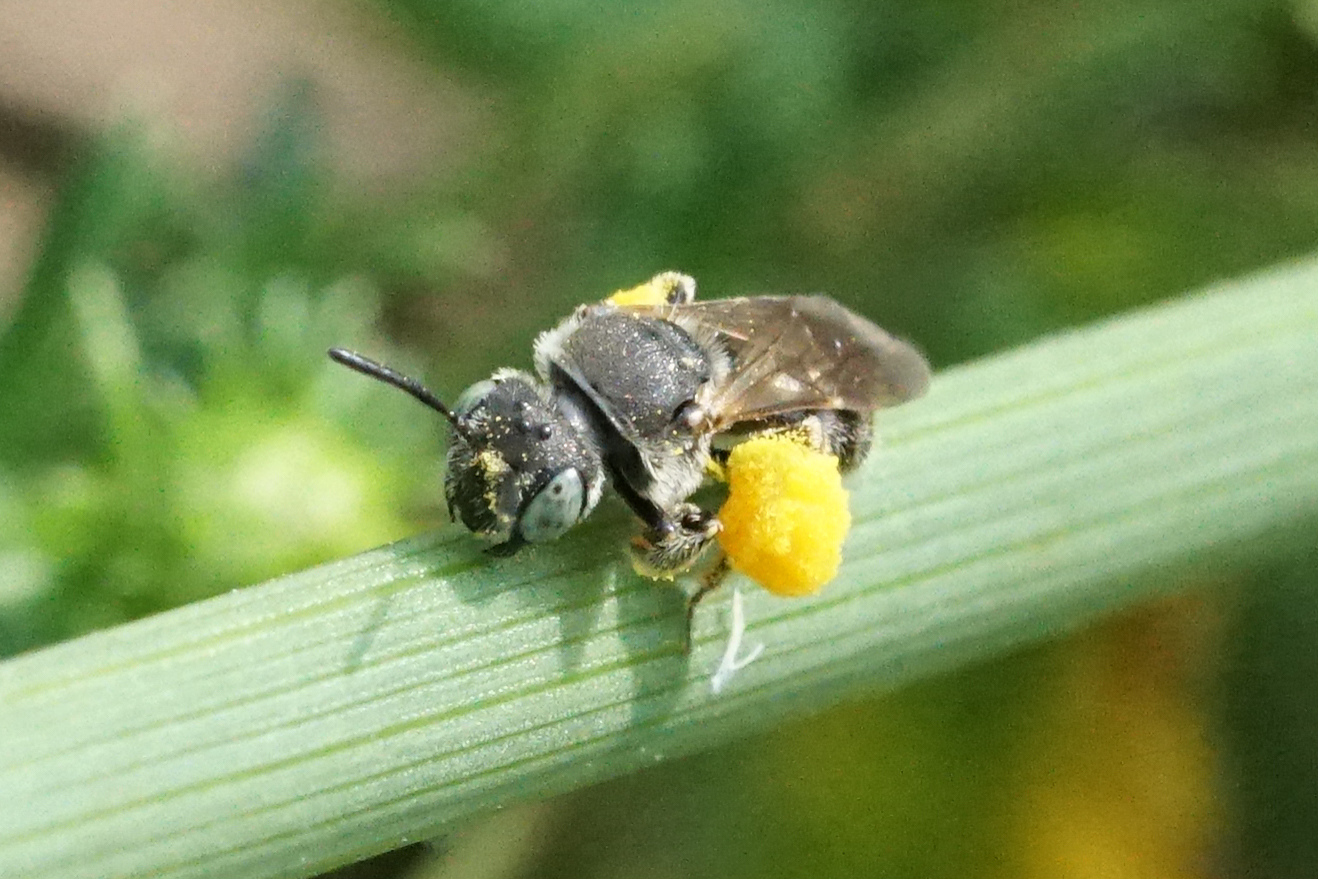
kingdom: Animalia
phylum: Arthropoda
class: Insecta
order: Hymenoptera
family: Andrenidae
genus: Pseudopanurgus
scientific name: Pseudopanurgus compositarum
